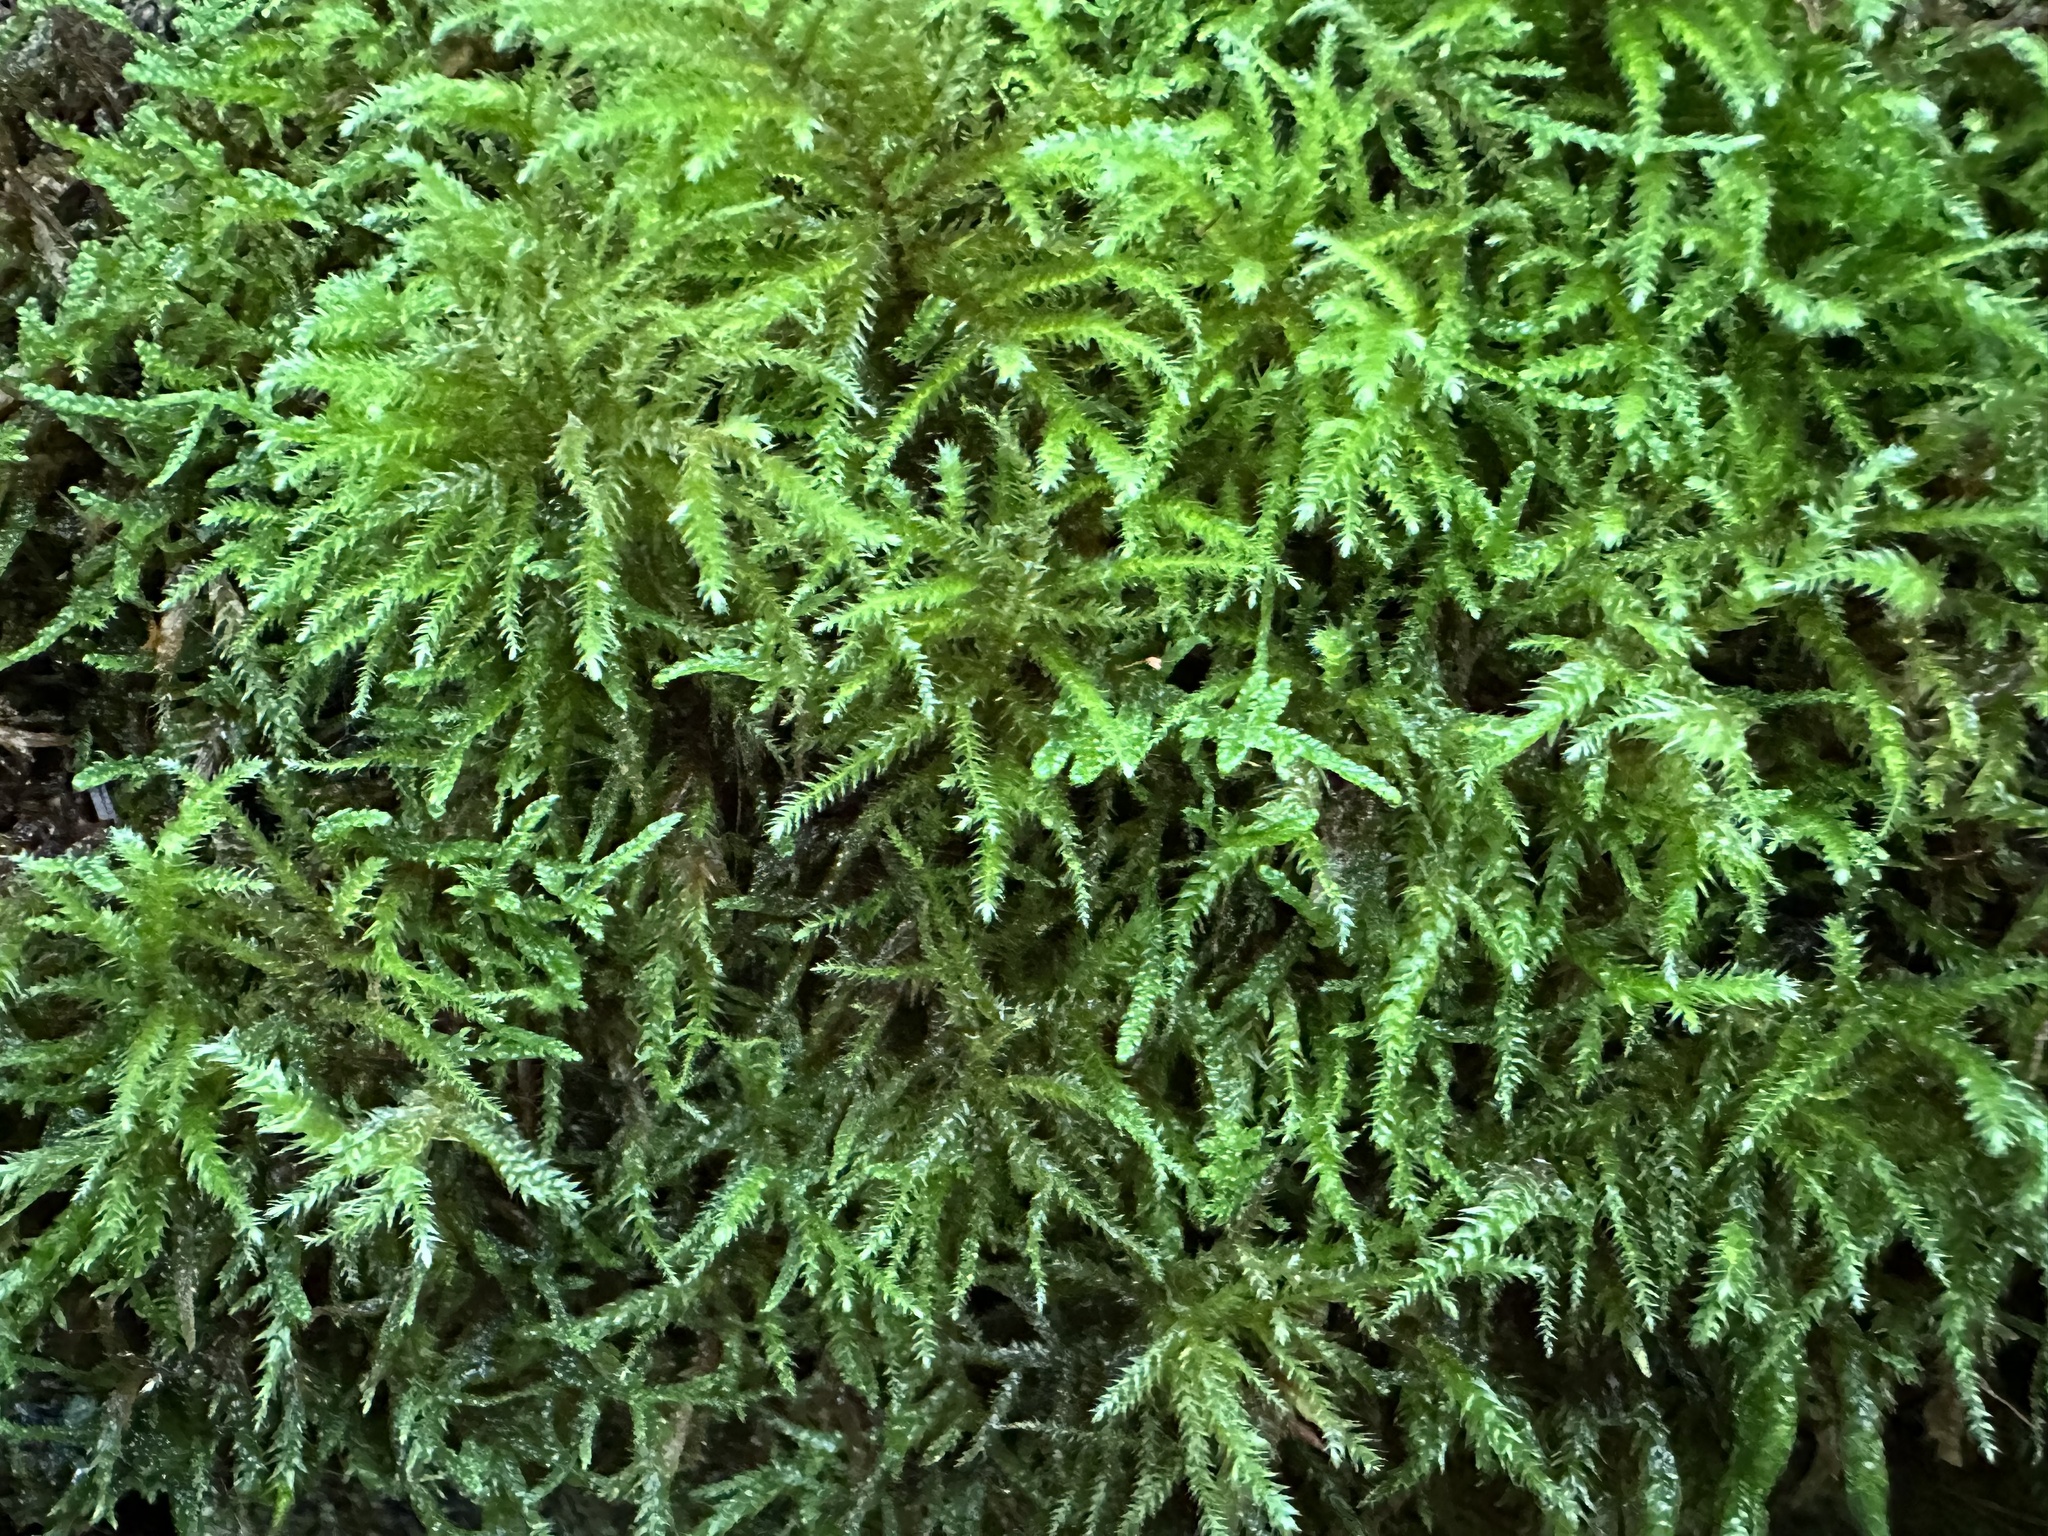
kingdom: Plantae
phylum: Bryophyta
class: Bryopsida
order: Hypnales
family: Brachytheciaceae
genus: Eurhynchium
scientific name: Eurhynchium striatum
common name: Common striated feather-moss
